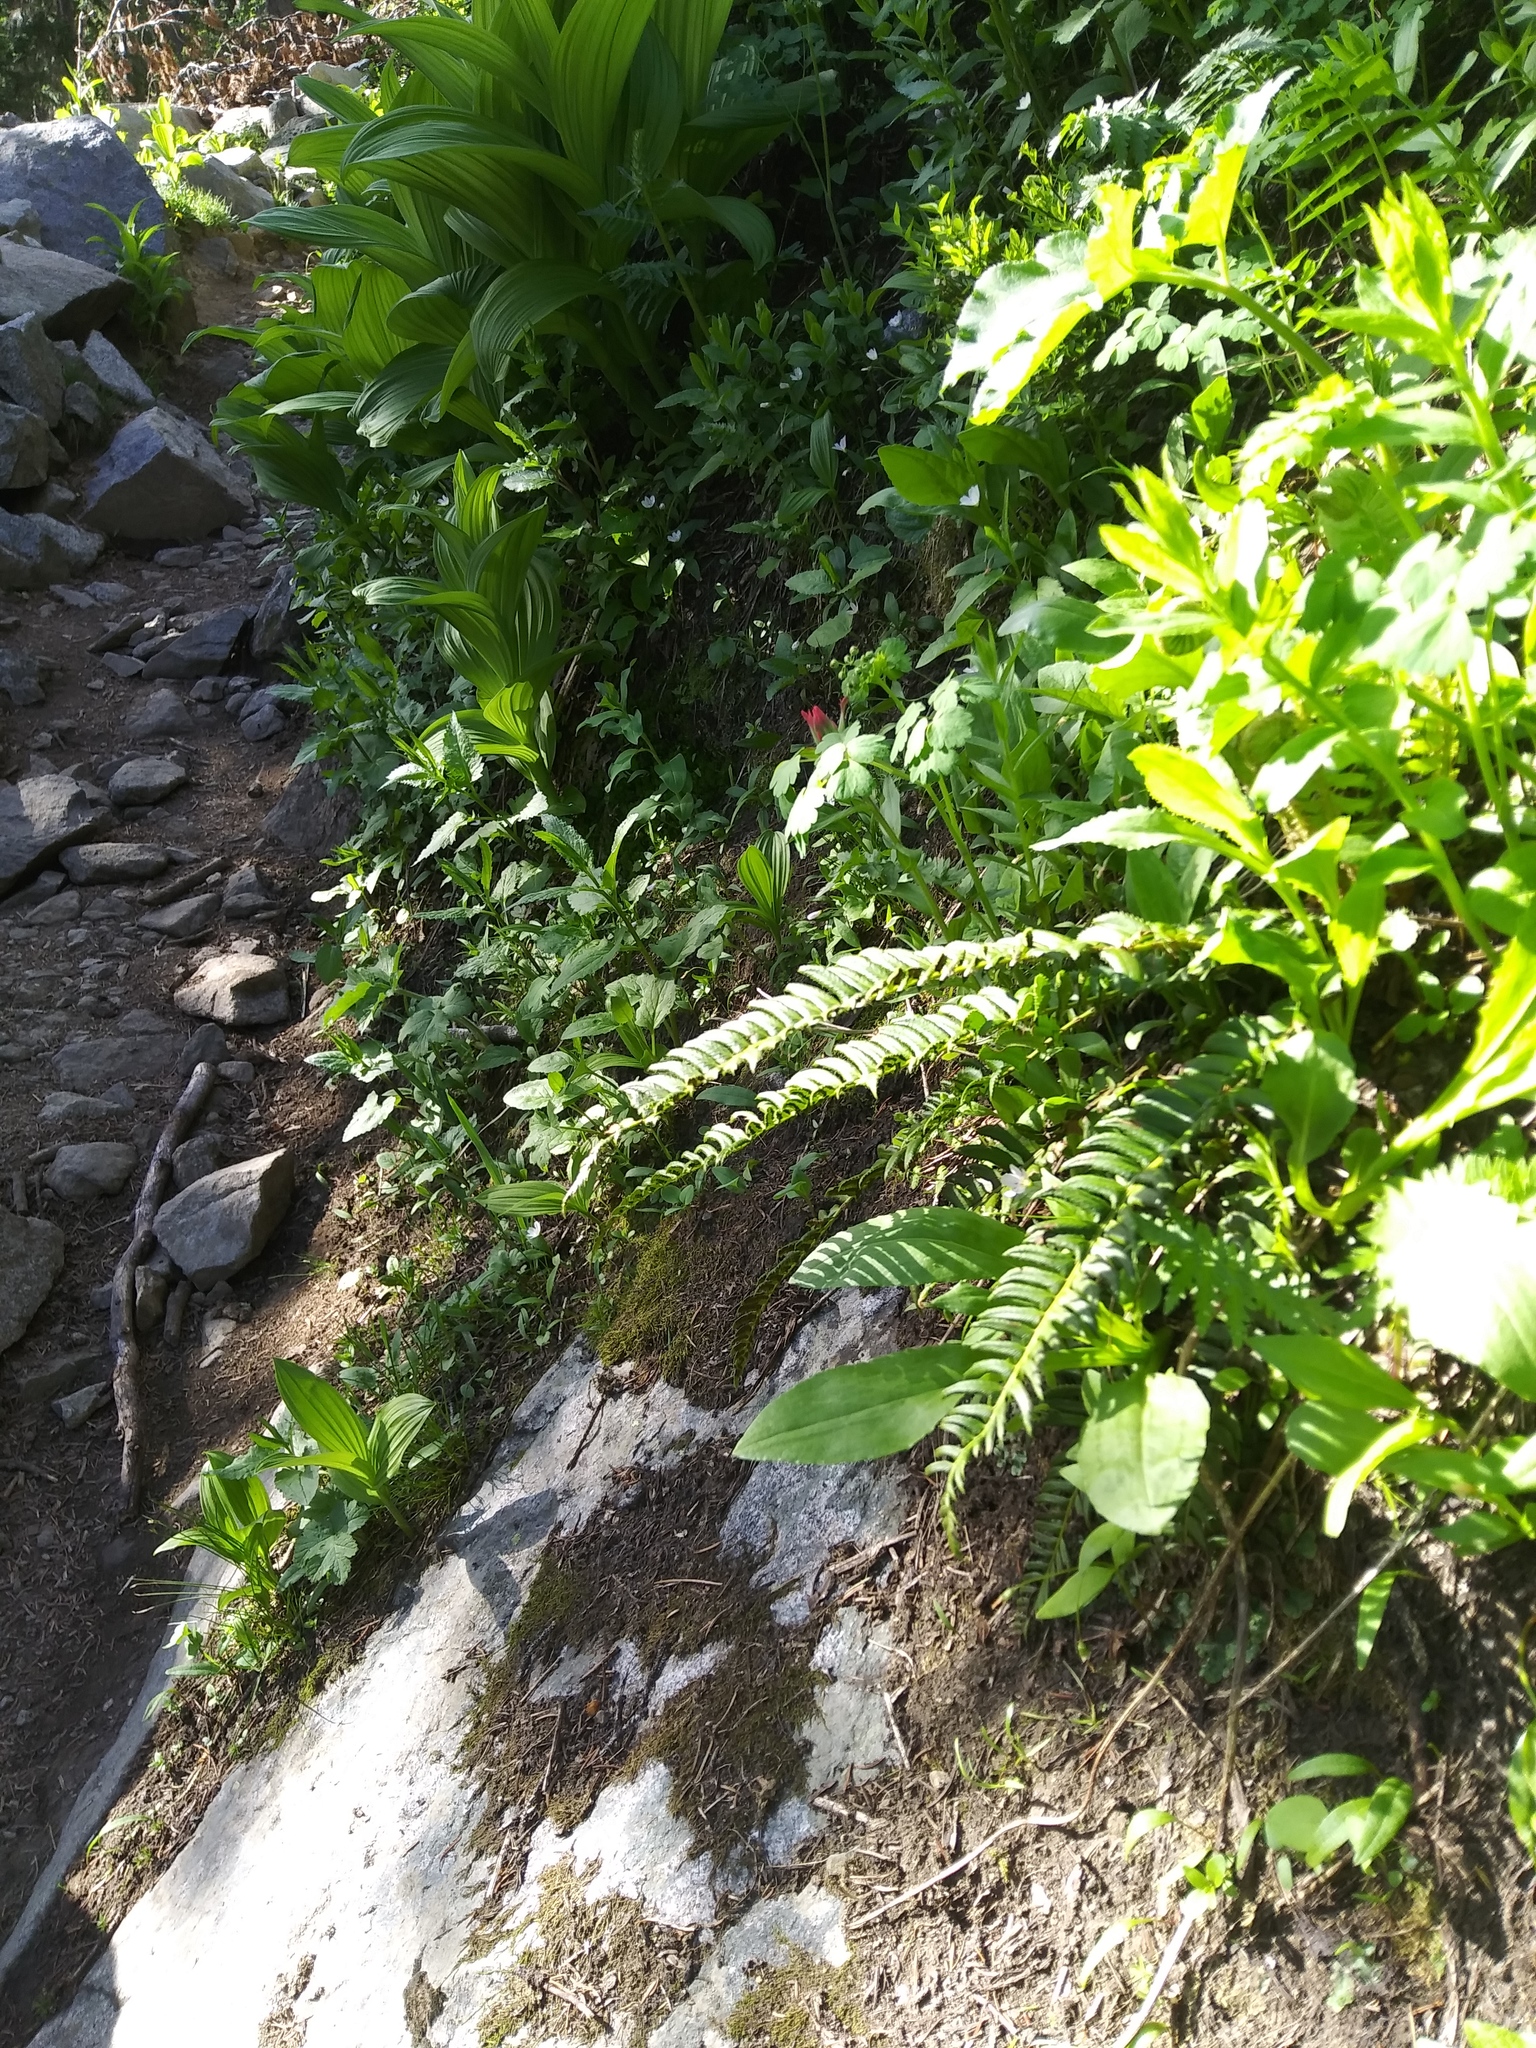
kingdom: Plantae
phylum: Tracheophyta
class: Polypodiopsida
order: Polypodiales
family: Dryopteridaceae
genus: Polystichum
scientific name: Polystichum lonchitis
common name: Holly fern
